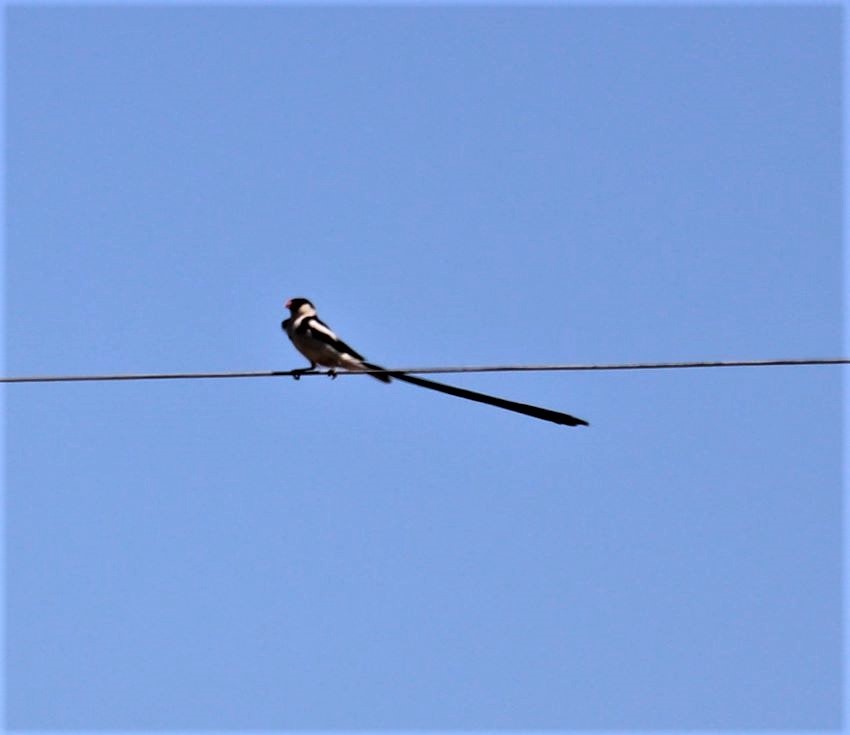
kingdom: Animalia
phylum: Chordata
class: Aves
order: Passeriformes
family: Viduidae
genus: Vidua
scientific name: Vidua macroura
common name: Pin-tailed whydah
